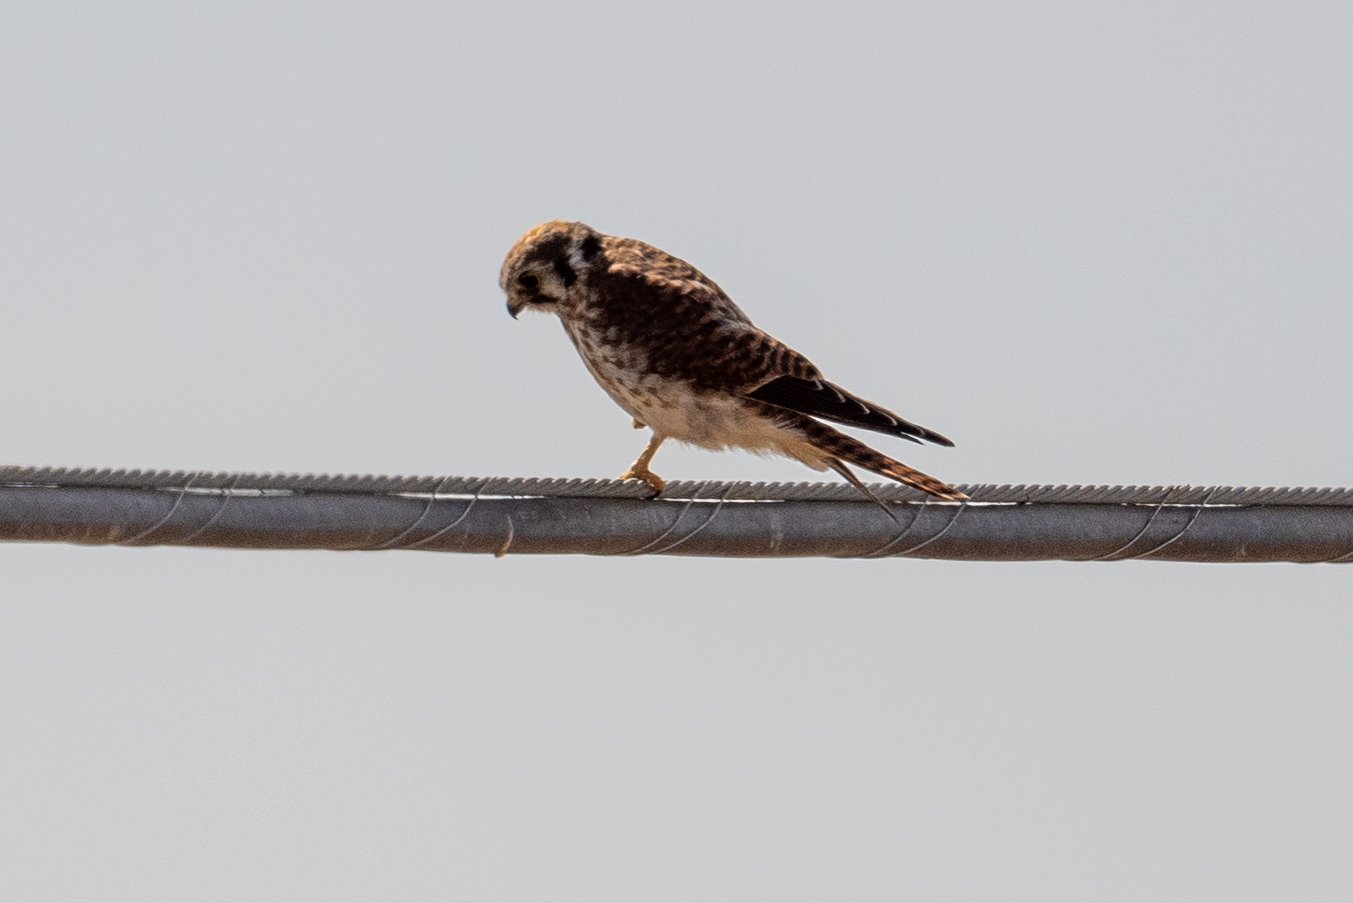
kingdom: Animalia
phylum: Chordata
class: Aves
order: Falconiformes
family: Falconidae
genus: Falco
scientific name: Falco sparverius
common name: American kestrel
